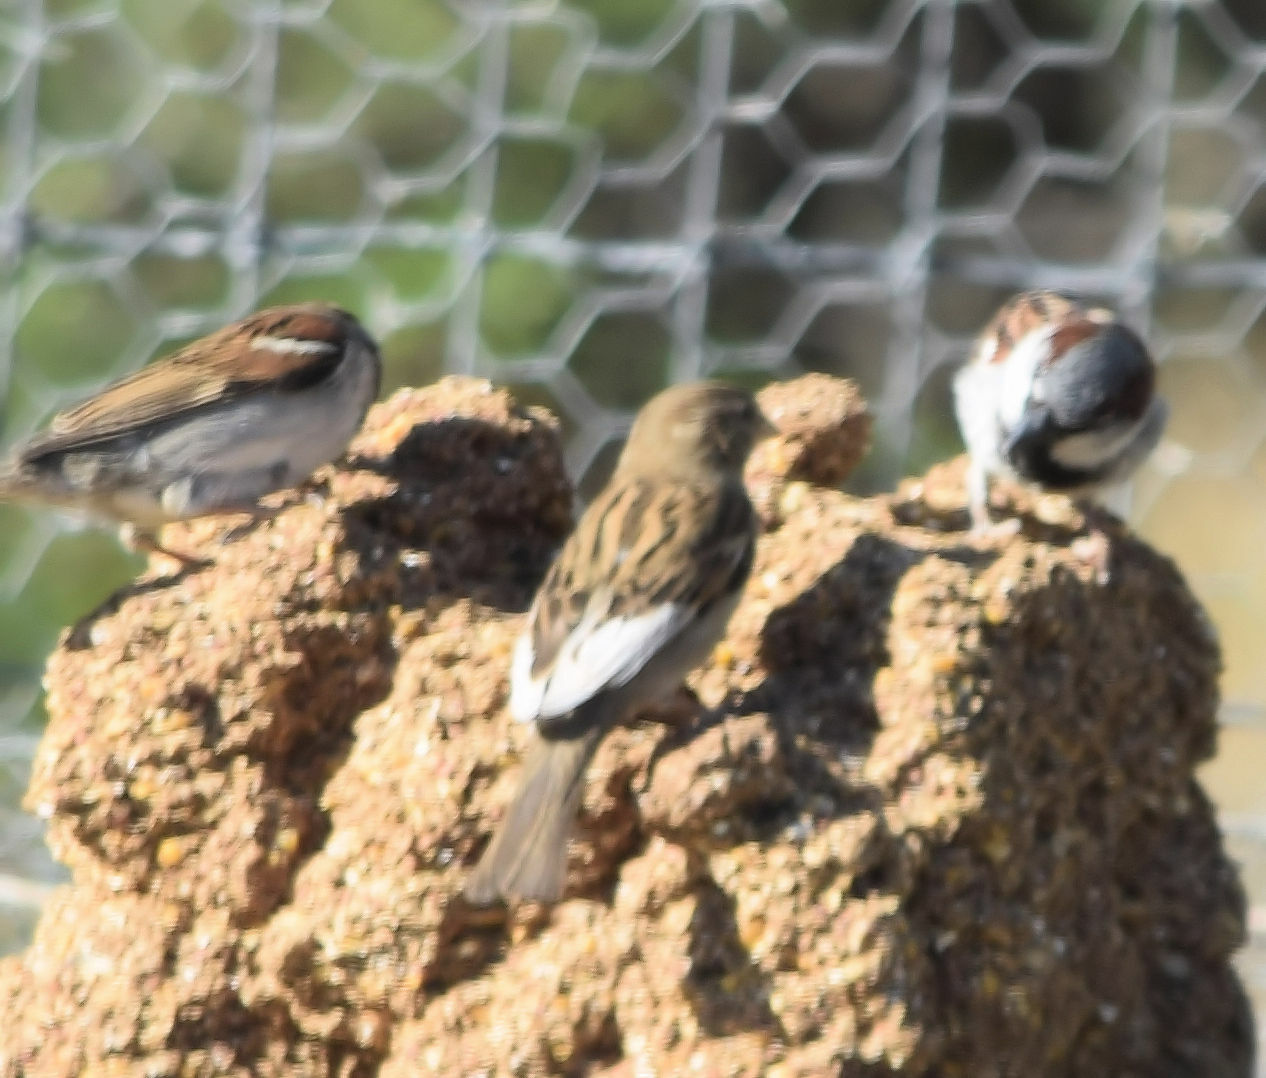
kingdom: Animalia
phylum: Chordata
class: Aves
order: Passeriformes
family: Passeridae
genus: Passer
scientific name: Passer domesticus
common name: House sparrow
